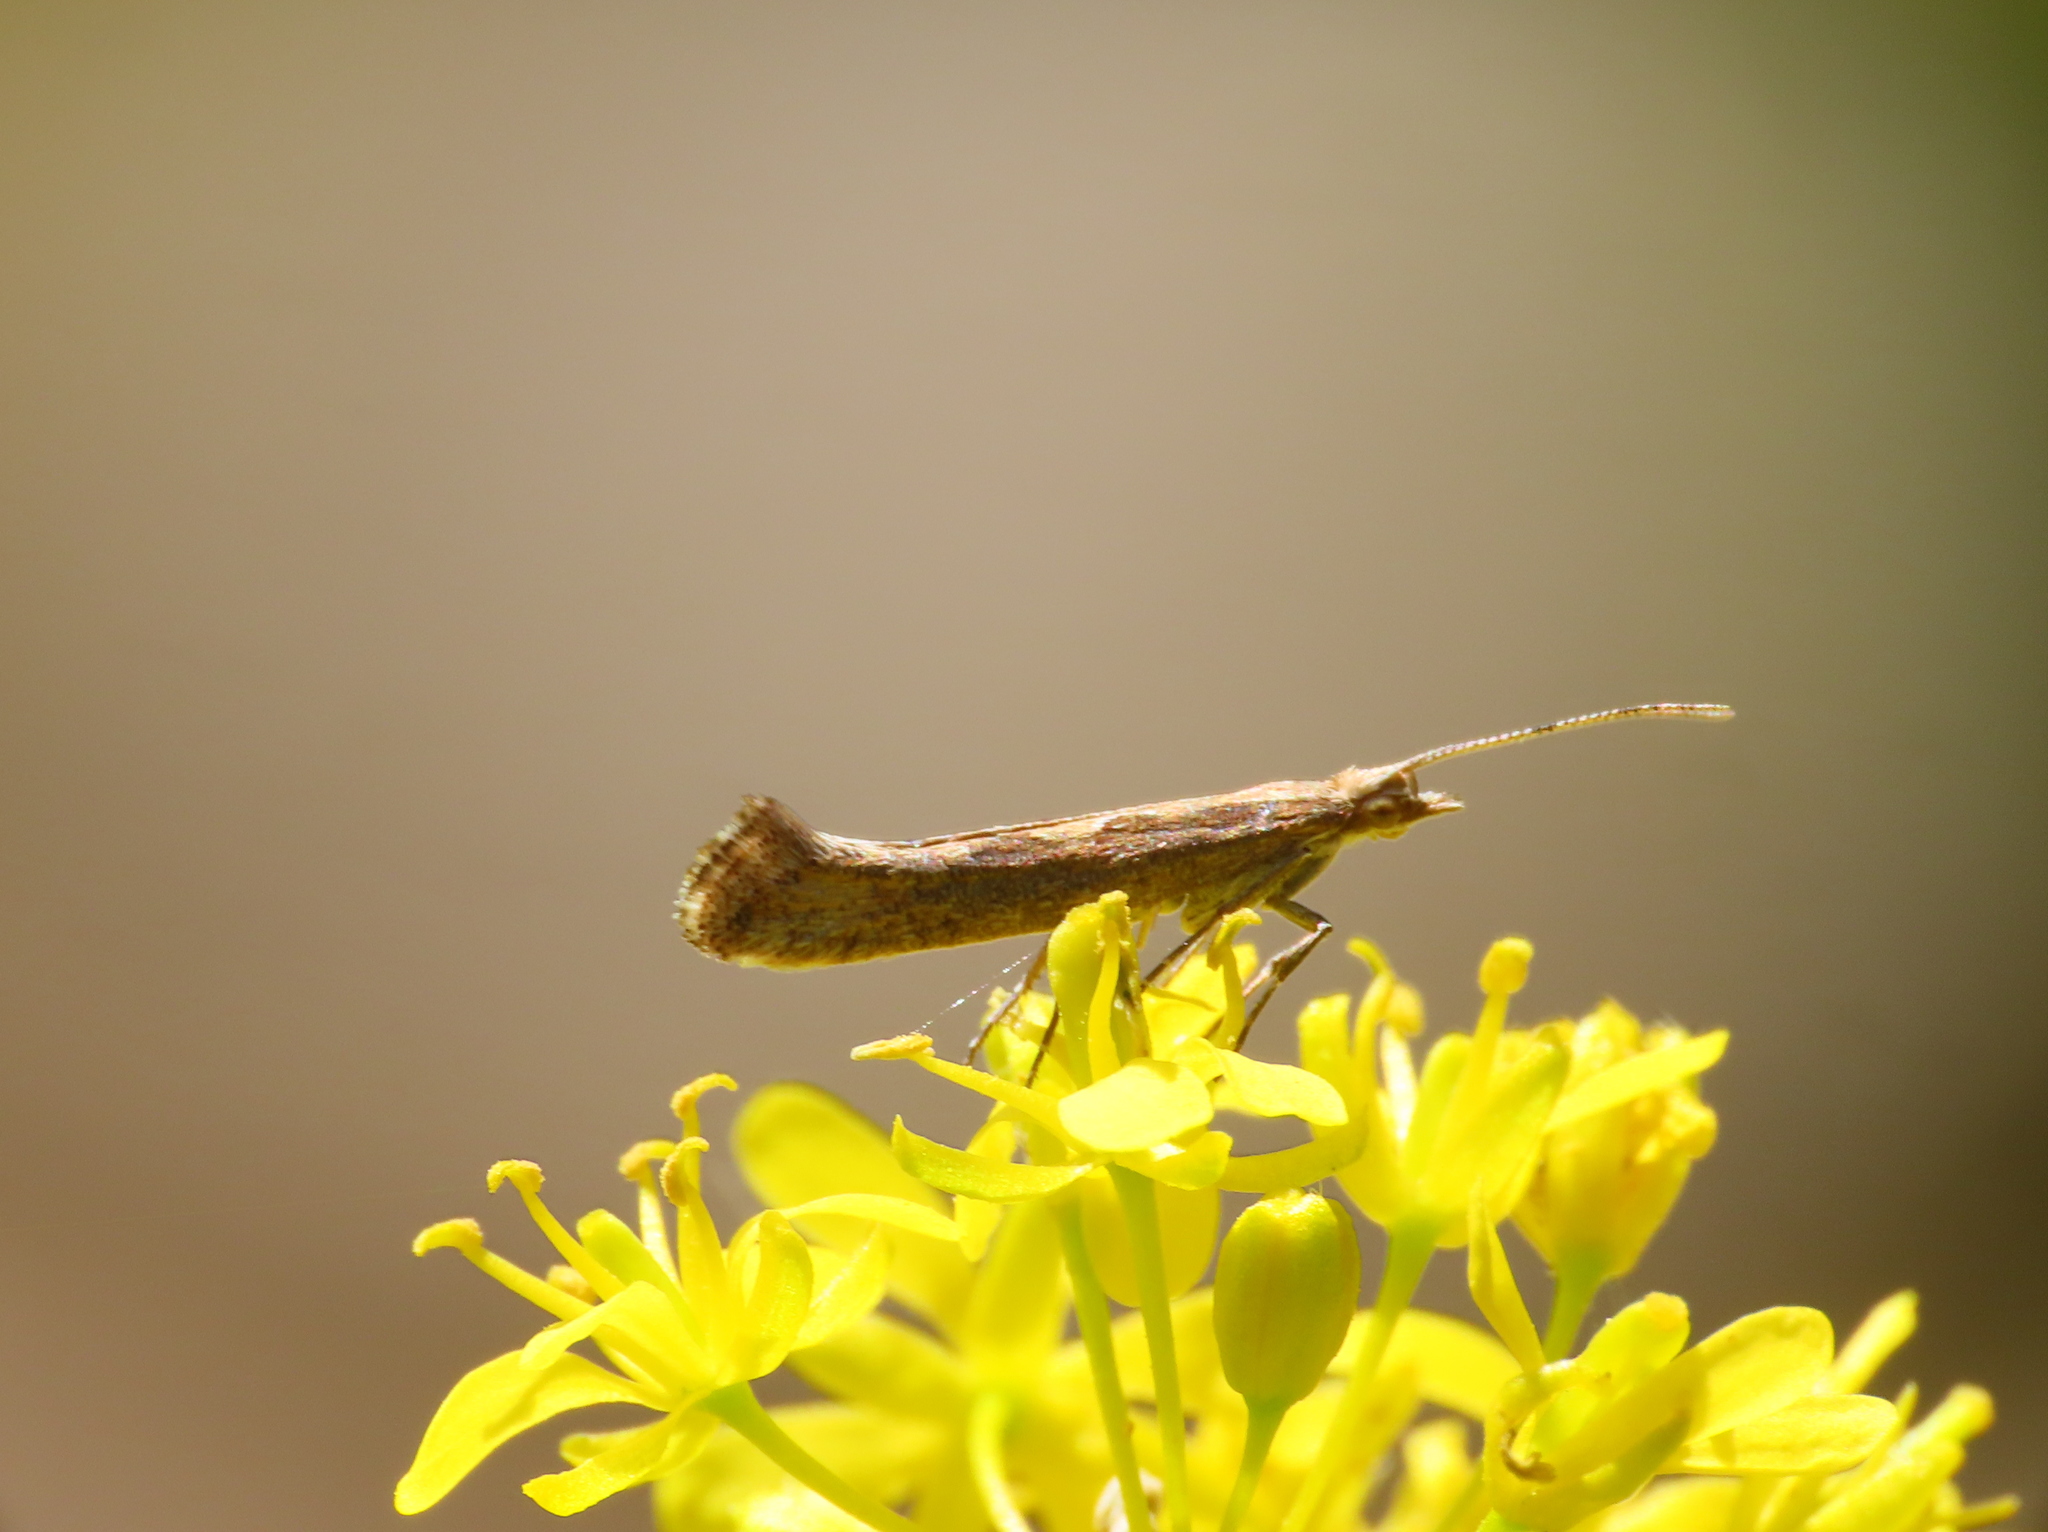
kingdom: Animalia
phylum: Arthropoda
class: Insecta
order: Lepidoptera
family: Plutellidae
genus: Plutella
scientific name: Plutella xylostella
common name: Diamond-back moth
